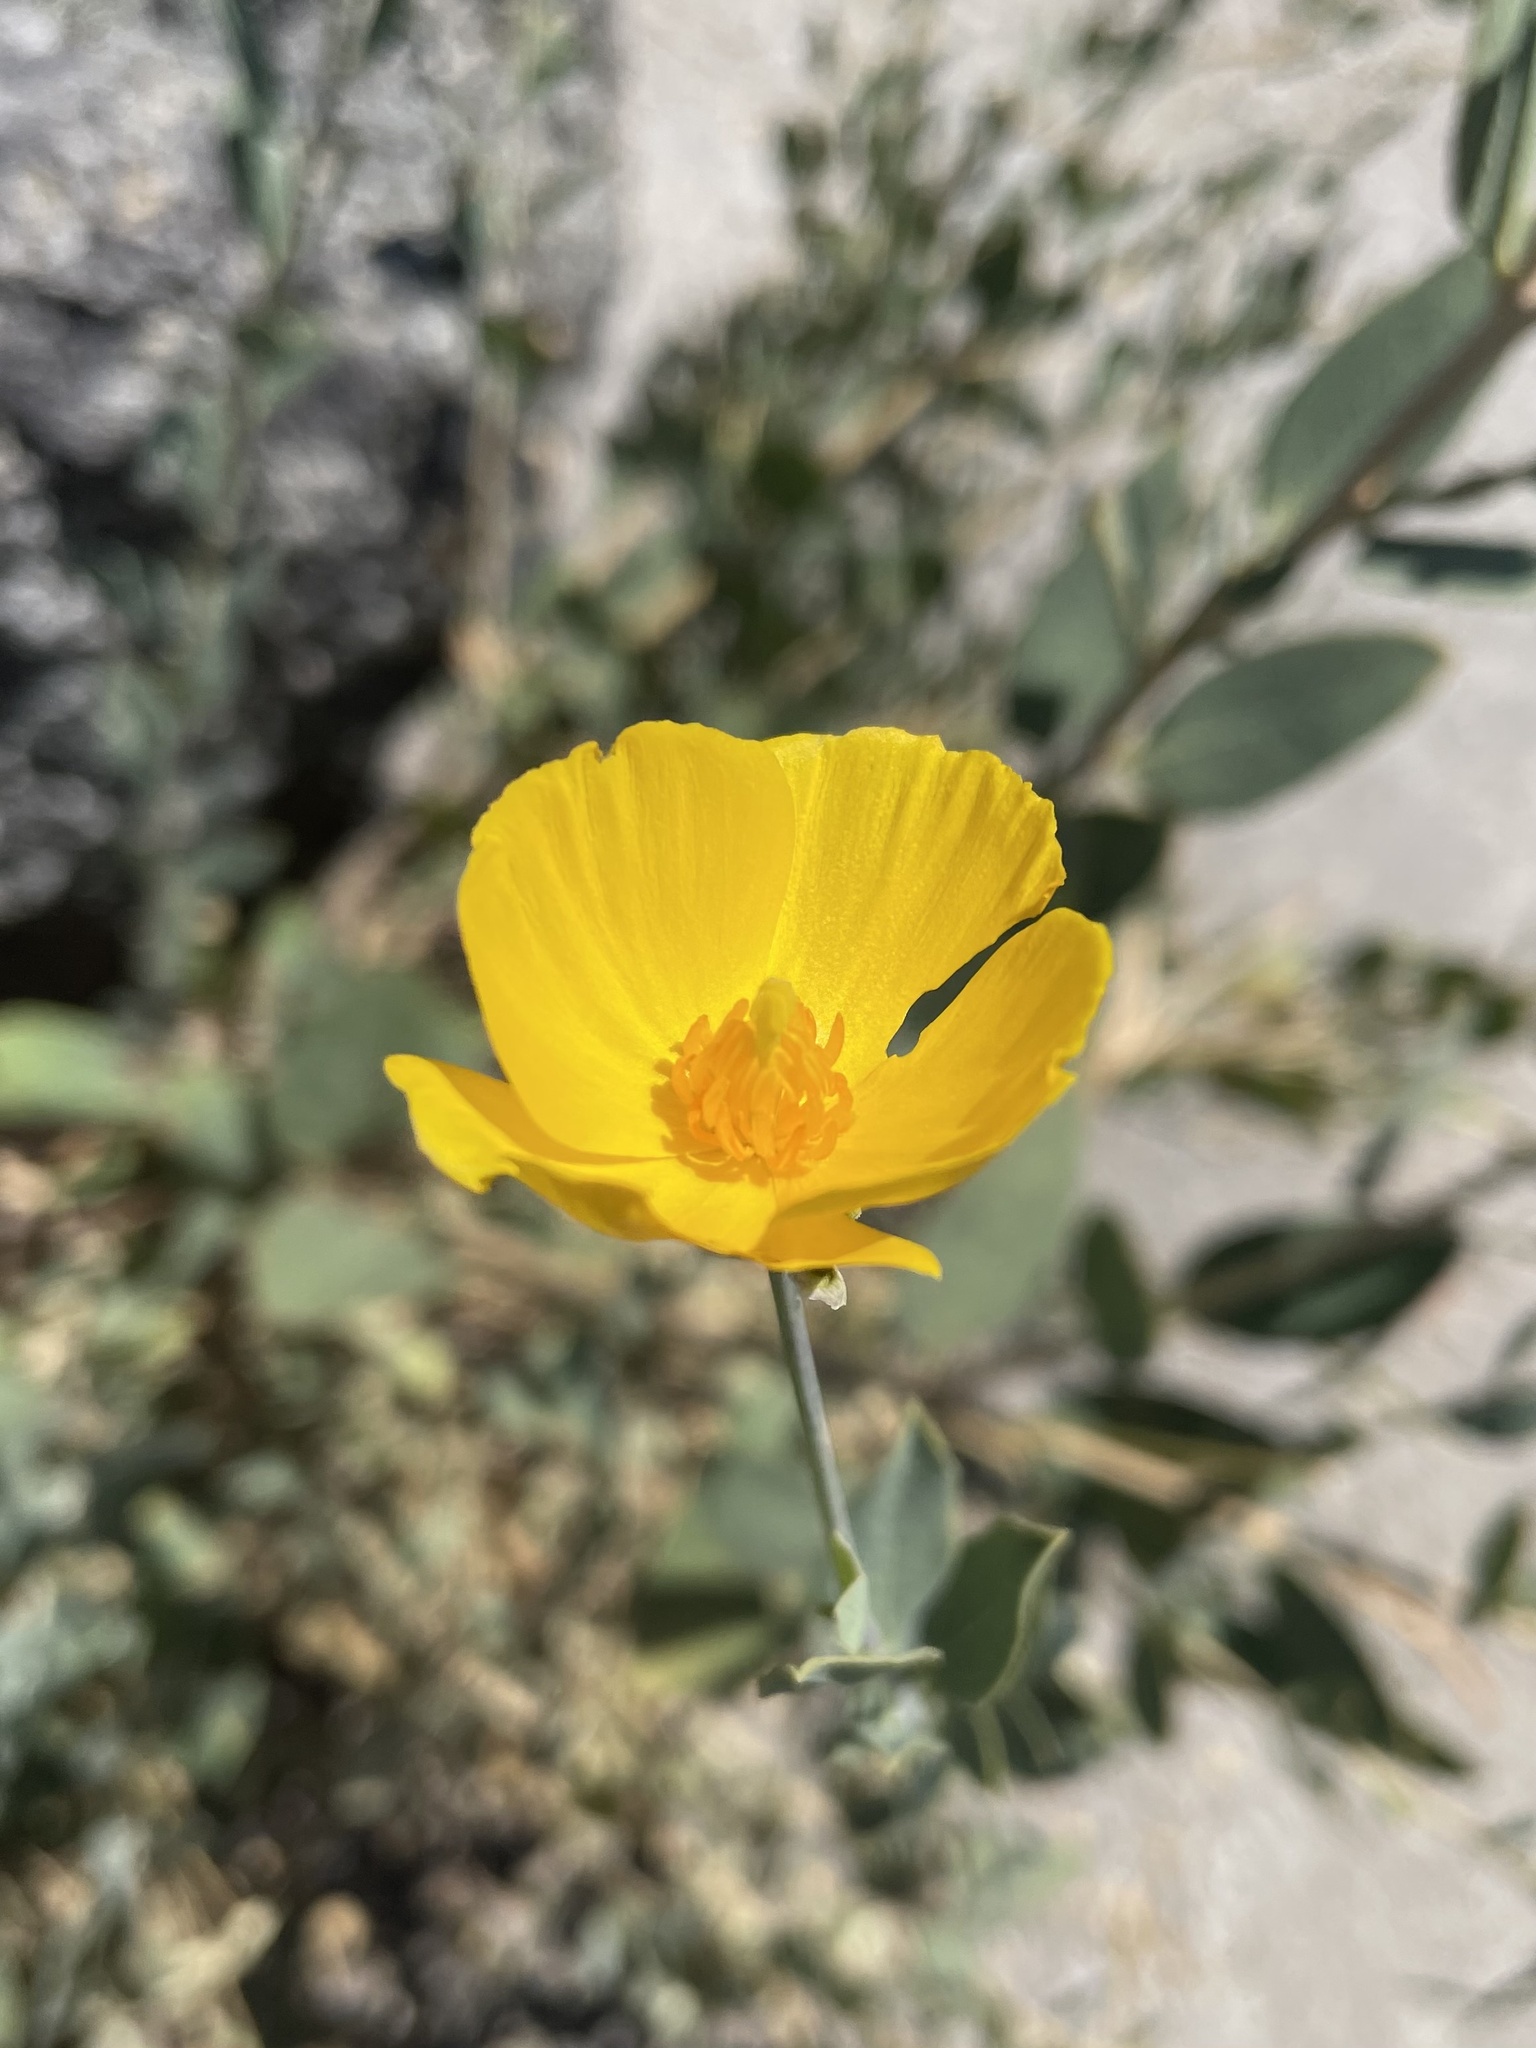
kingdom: Plantae
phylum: Tracheophyta
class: Magnoliopsida
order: Ranunculales
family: Papaveraceae
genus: Dendromecon
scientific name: Dendromecon rigida
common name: Tree poppy
